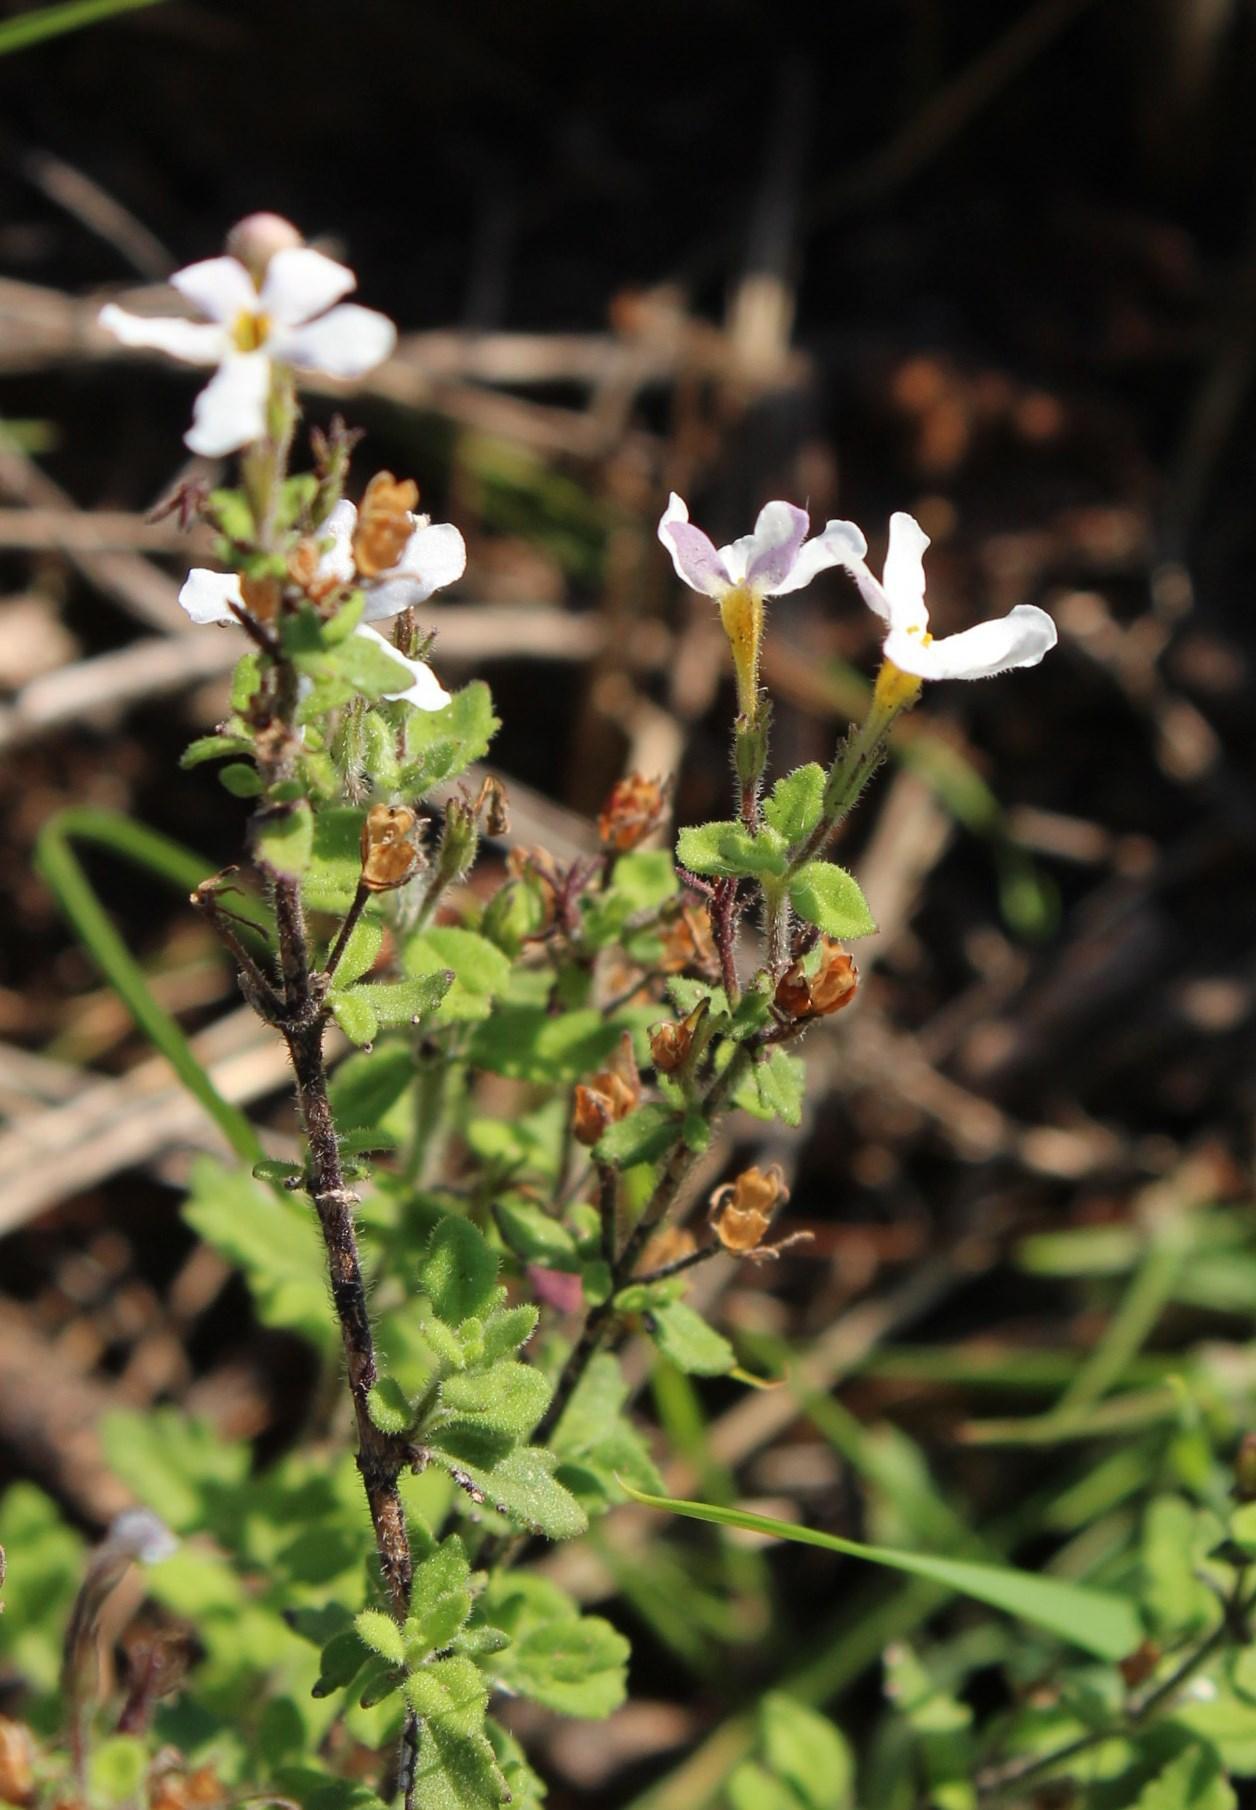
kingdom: Plantae
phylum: Tracheophyta
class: Magnoliopsida
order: Lamiales
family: Scrophulariaceae
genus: Chaenostoma
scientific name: Chaenostoma hispidum
